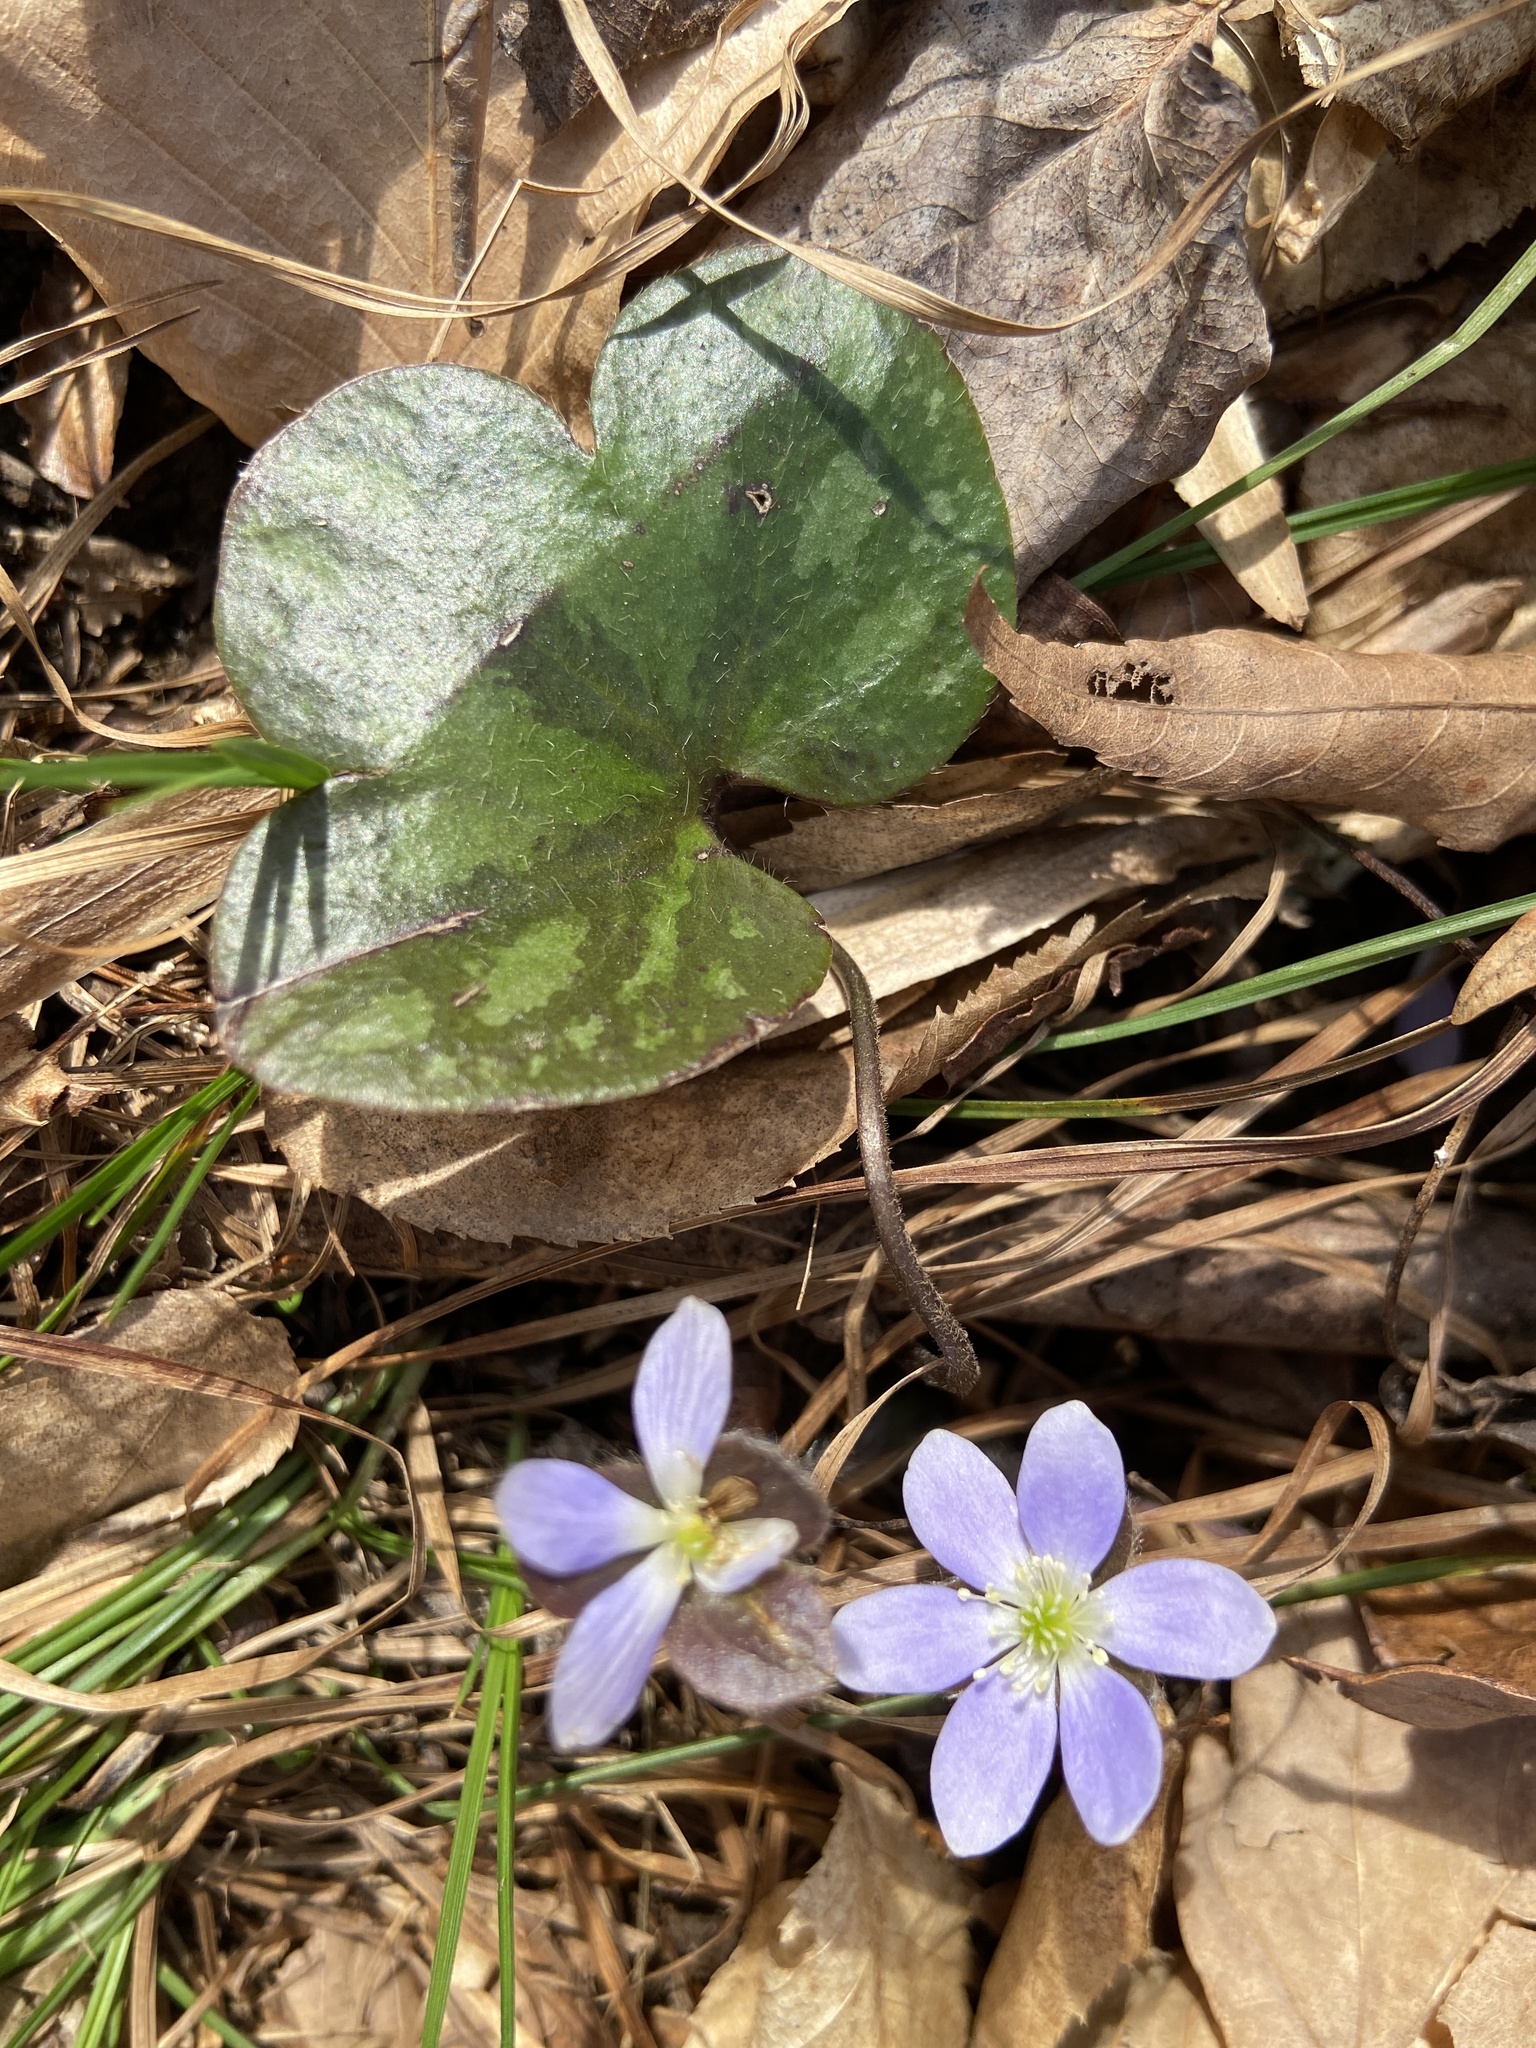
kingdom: Plantae
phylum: Tracheophyta
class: Magnoliopsida
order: Ranunculales
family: Ranunculaceae
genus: Hepatica
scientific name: Hepatica americana
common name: American hepatica
